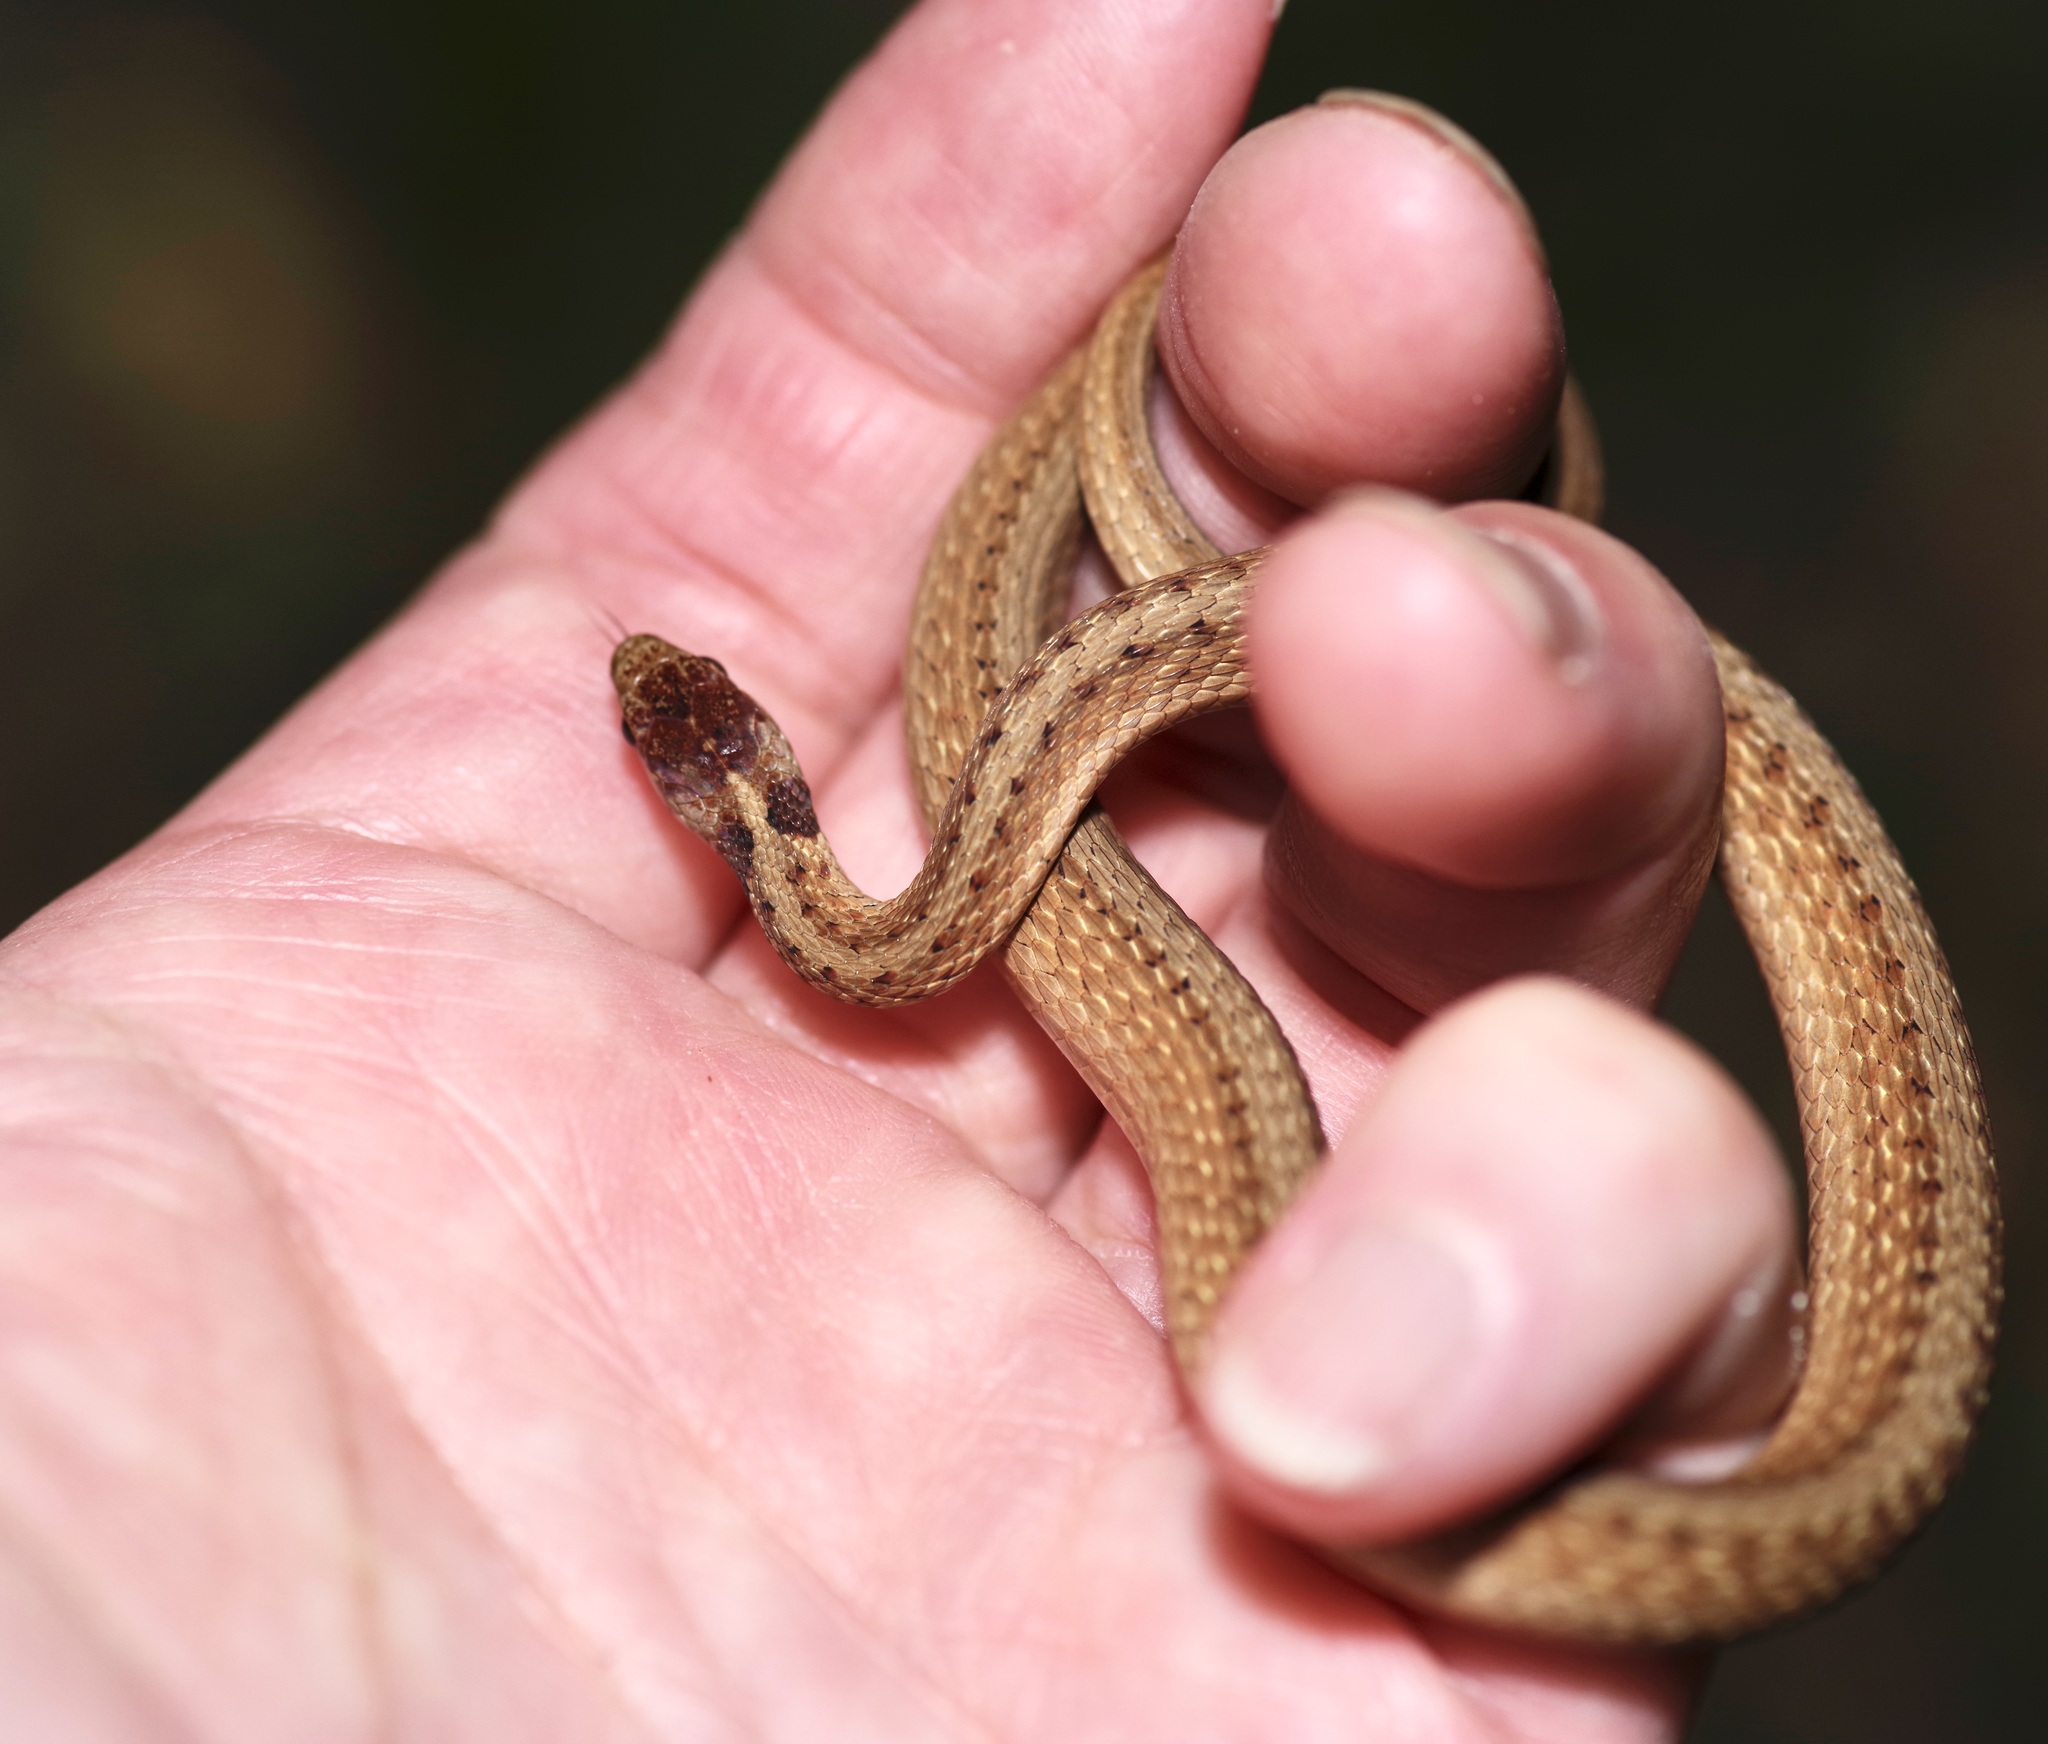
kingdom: Animalia
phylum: Chordata
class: Squamata
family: Colubridae
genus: Storeria
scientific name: Storeria dekayi
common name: (dekay’s) brown snake
